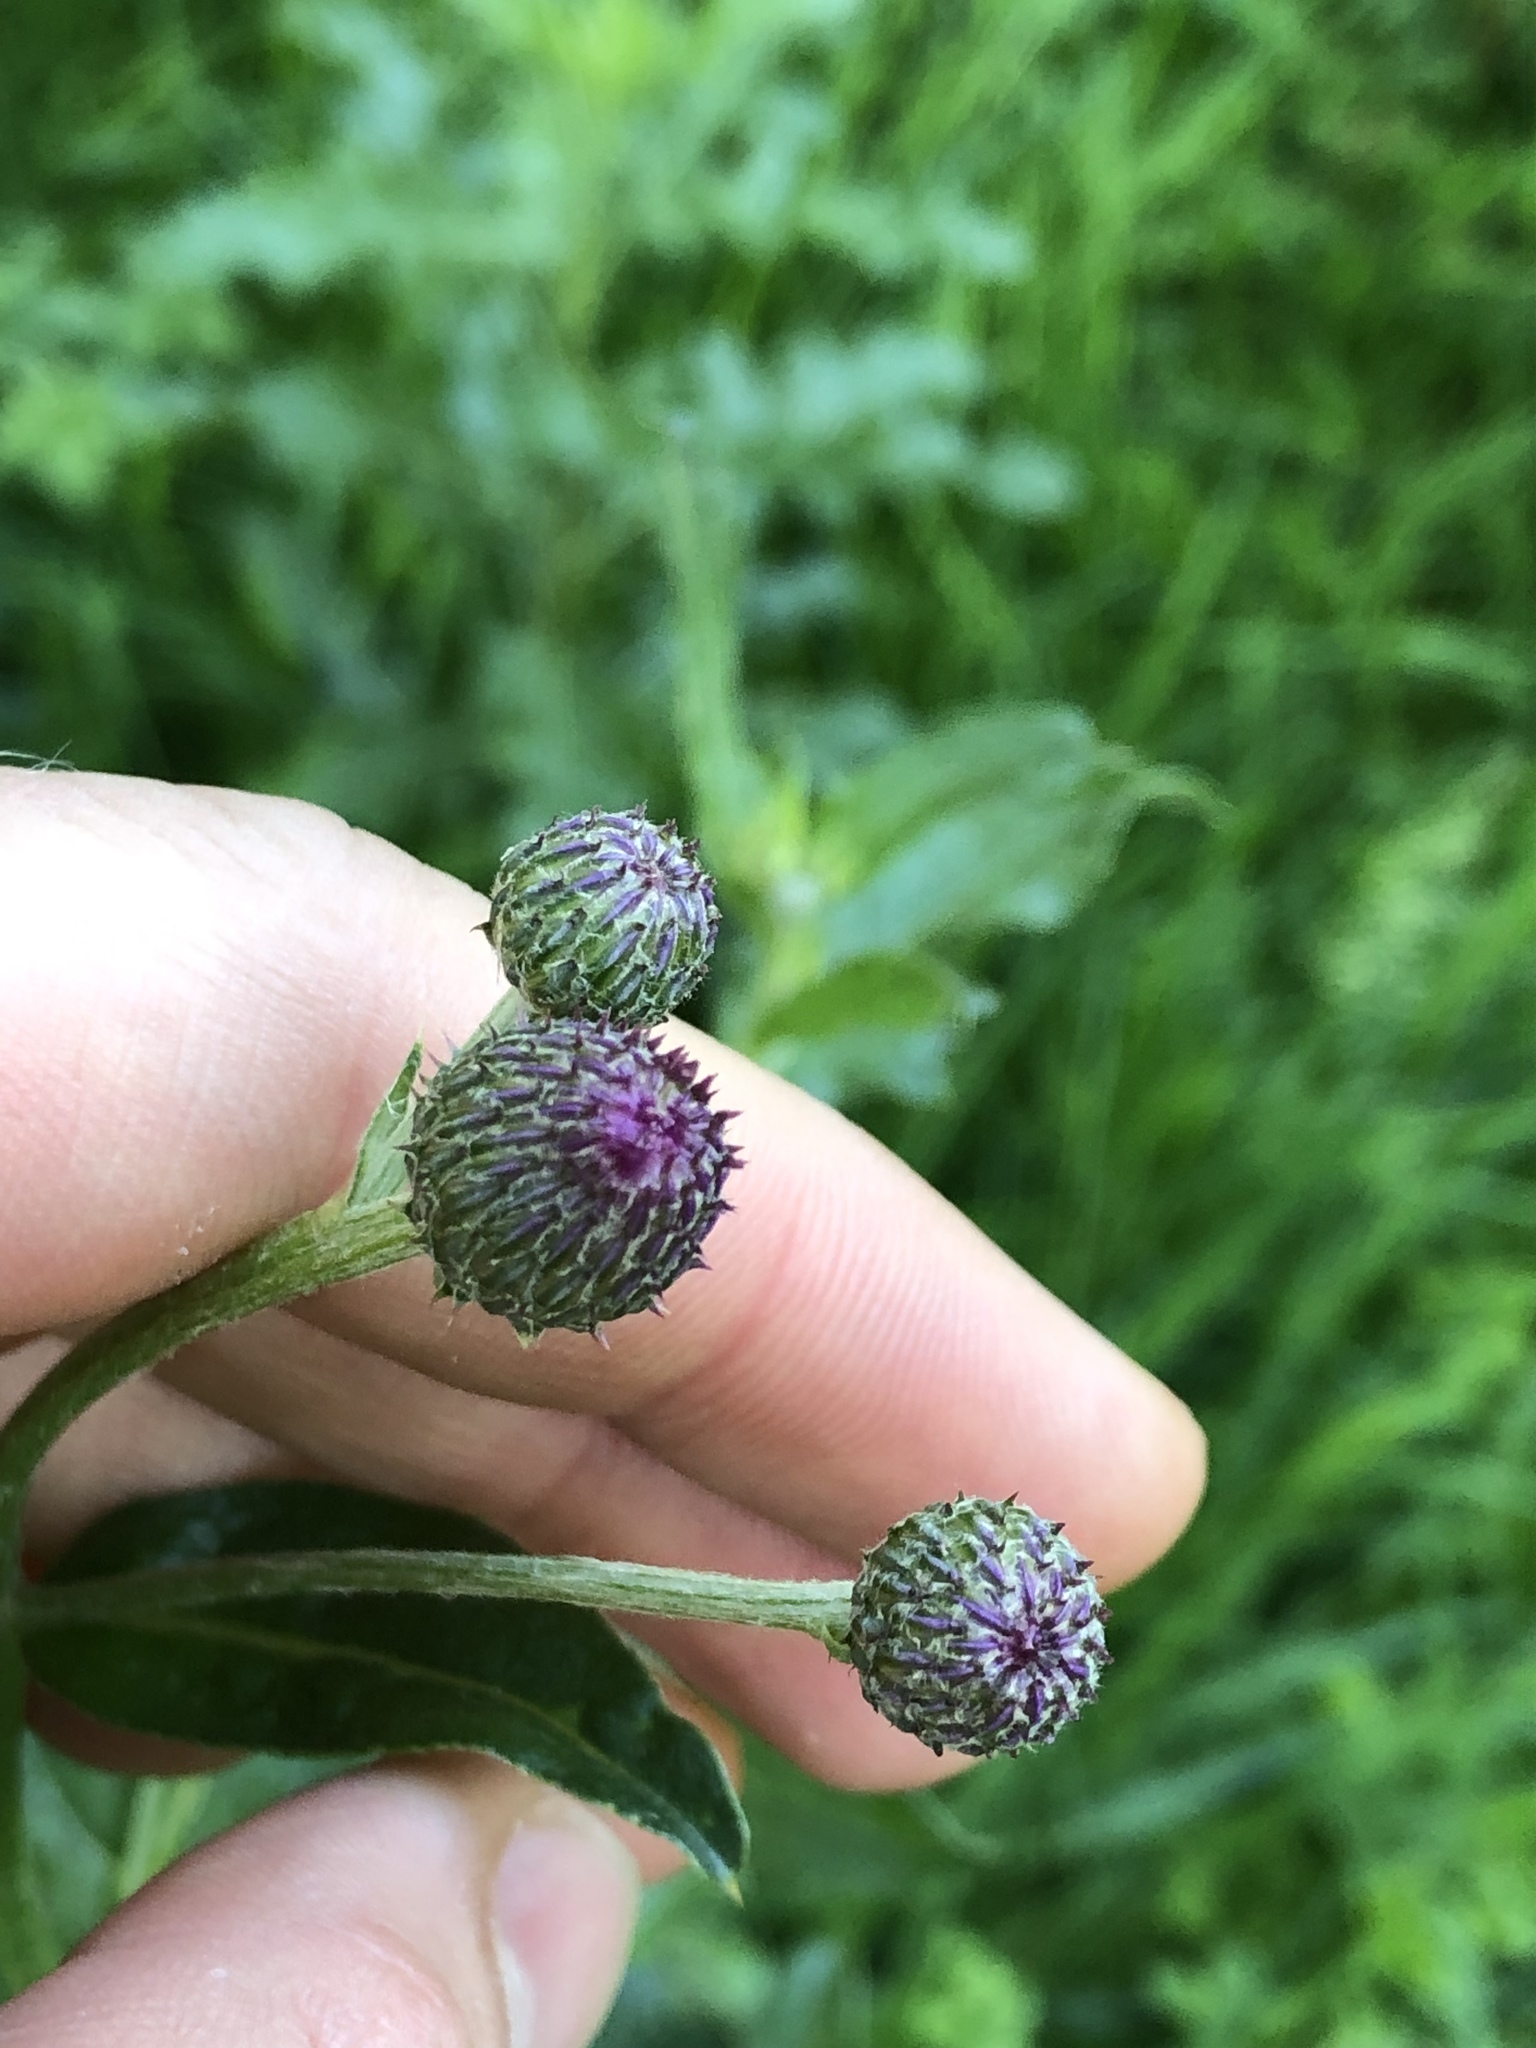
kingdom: Plantae
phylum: Tracheophyta
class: Magnoliopsida
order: Asterales
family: Asteraceae
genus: Cirsium
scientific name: Cirsium arvense
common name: Creeping thistle
